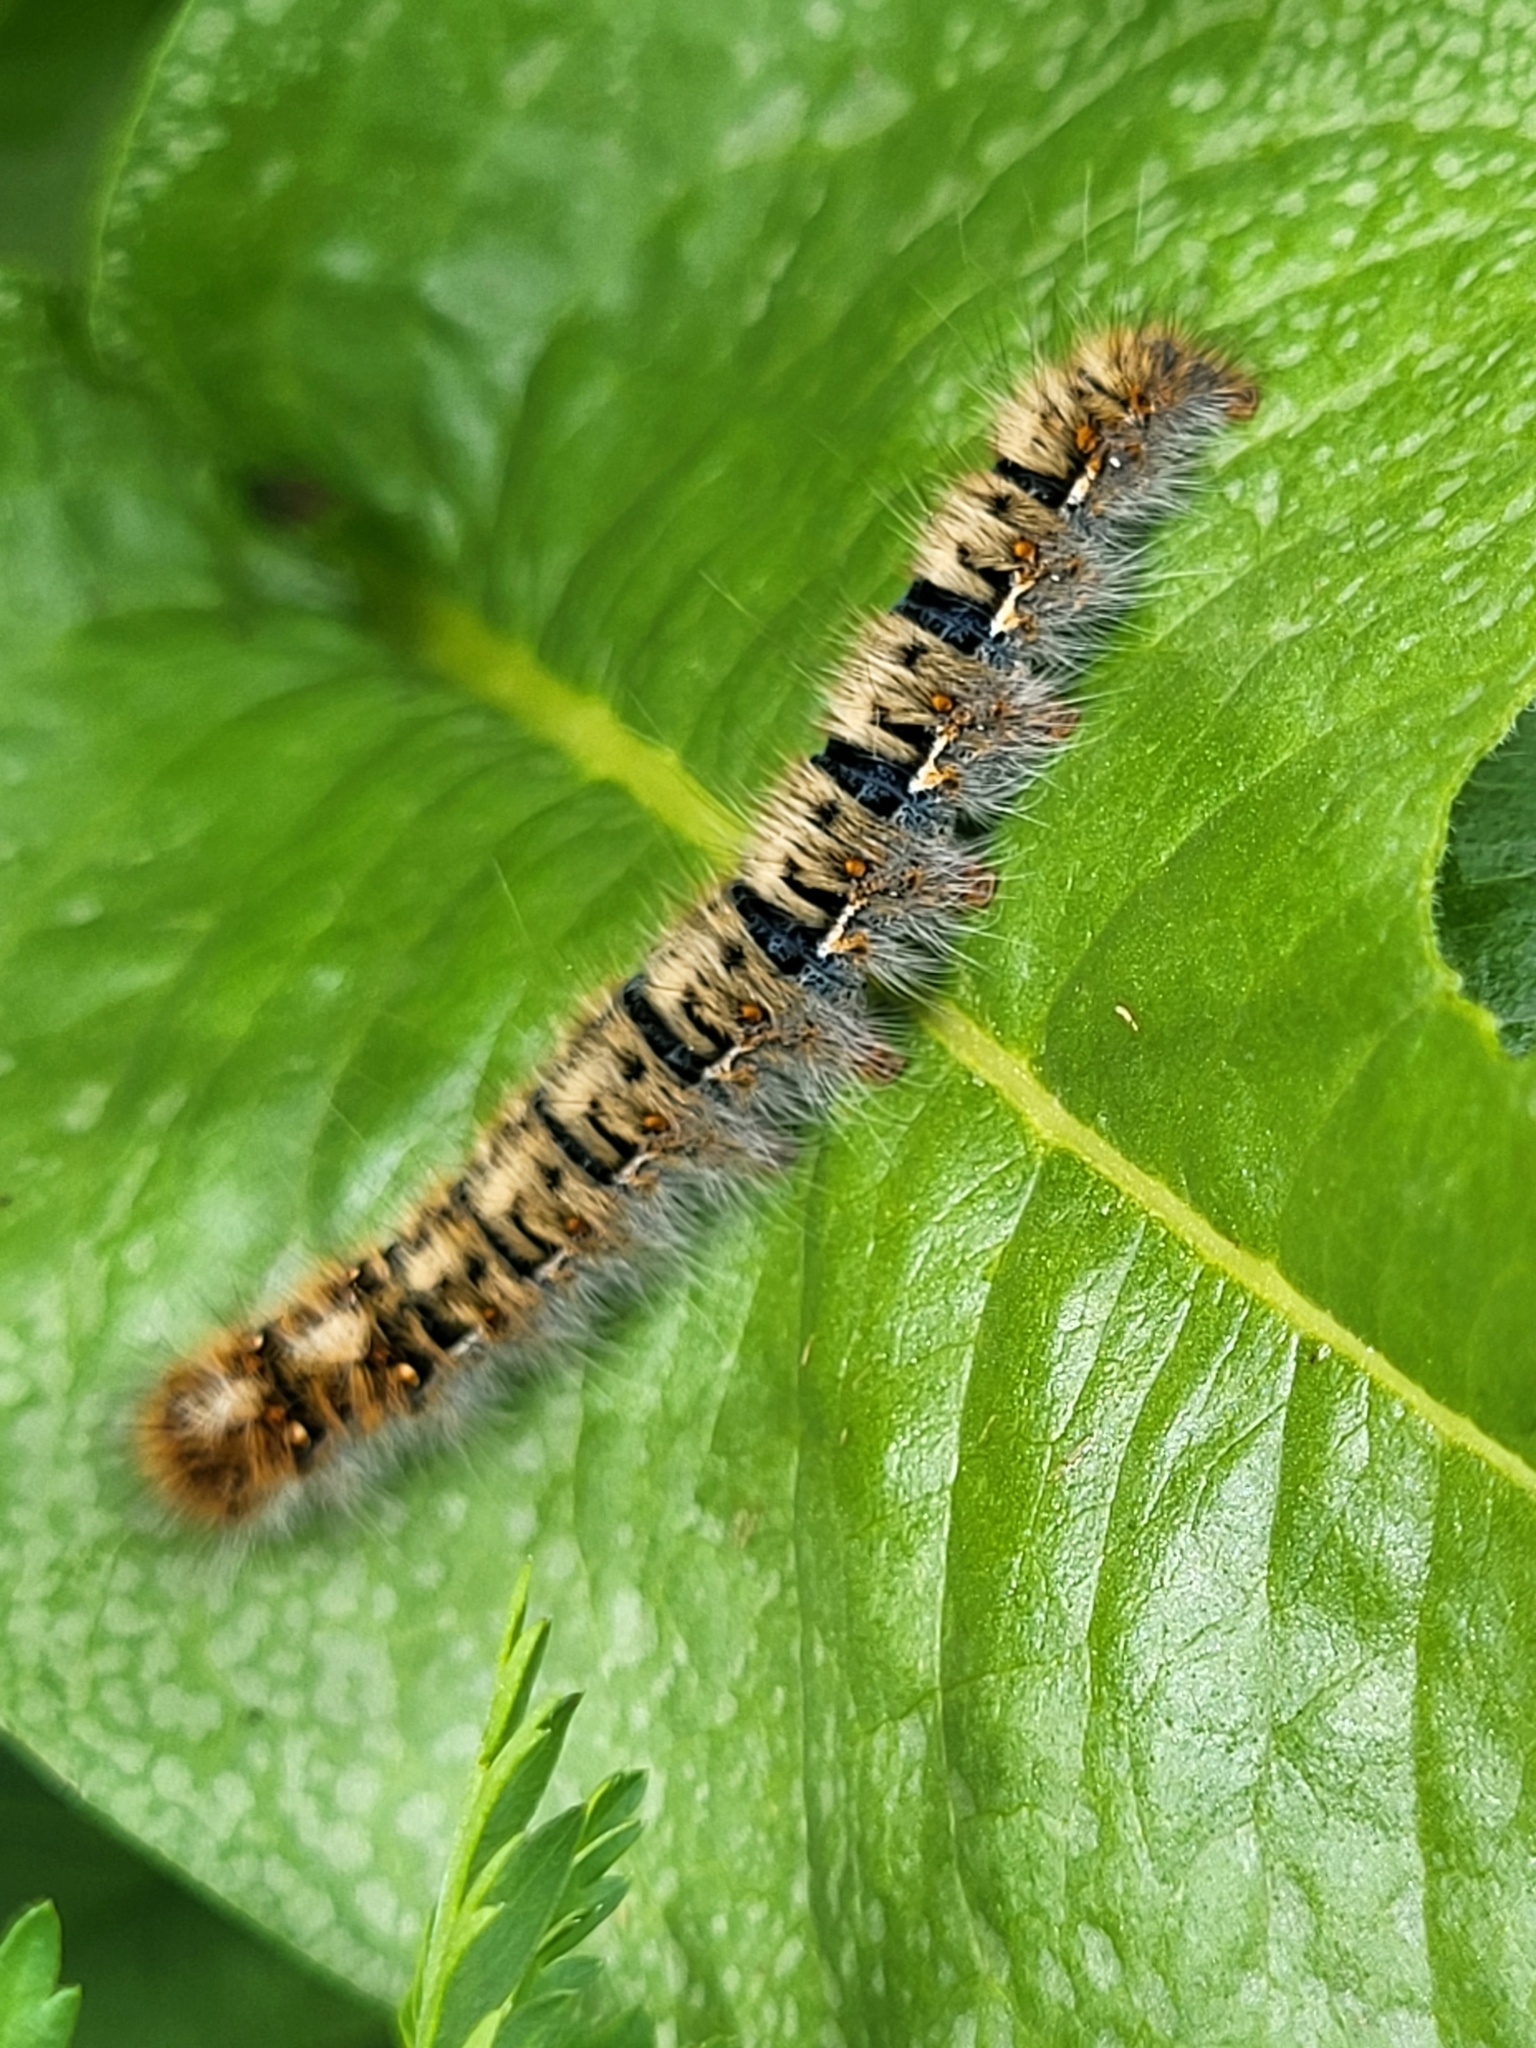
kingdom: Animalia
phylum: Arthropoda
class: Insecta
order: Lepidoptera
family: Lasiocampidae
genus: Lasiocampa
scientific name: Lasiocampa quercus
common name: Oak eggar
